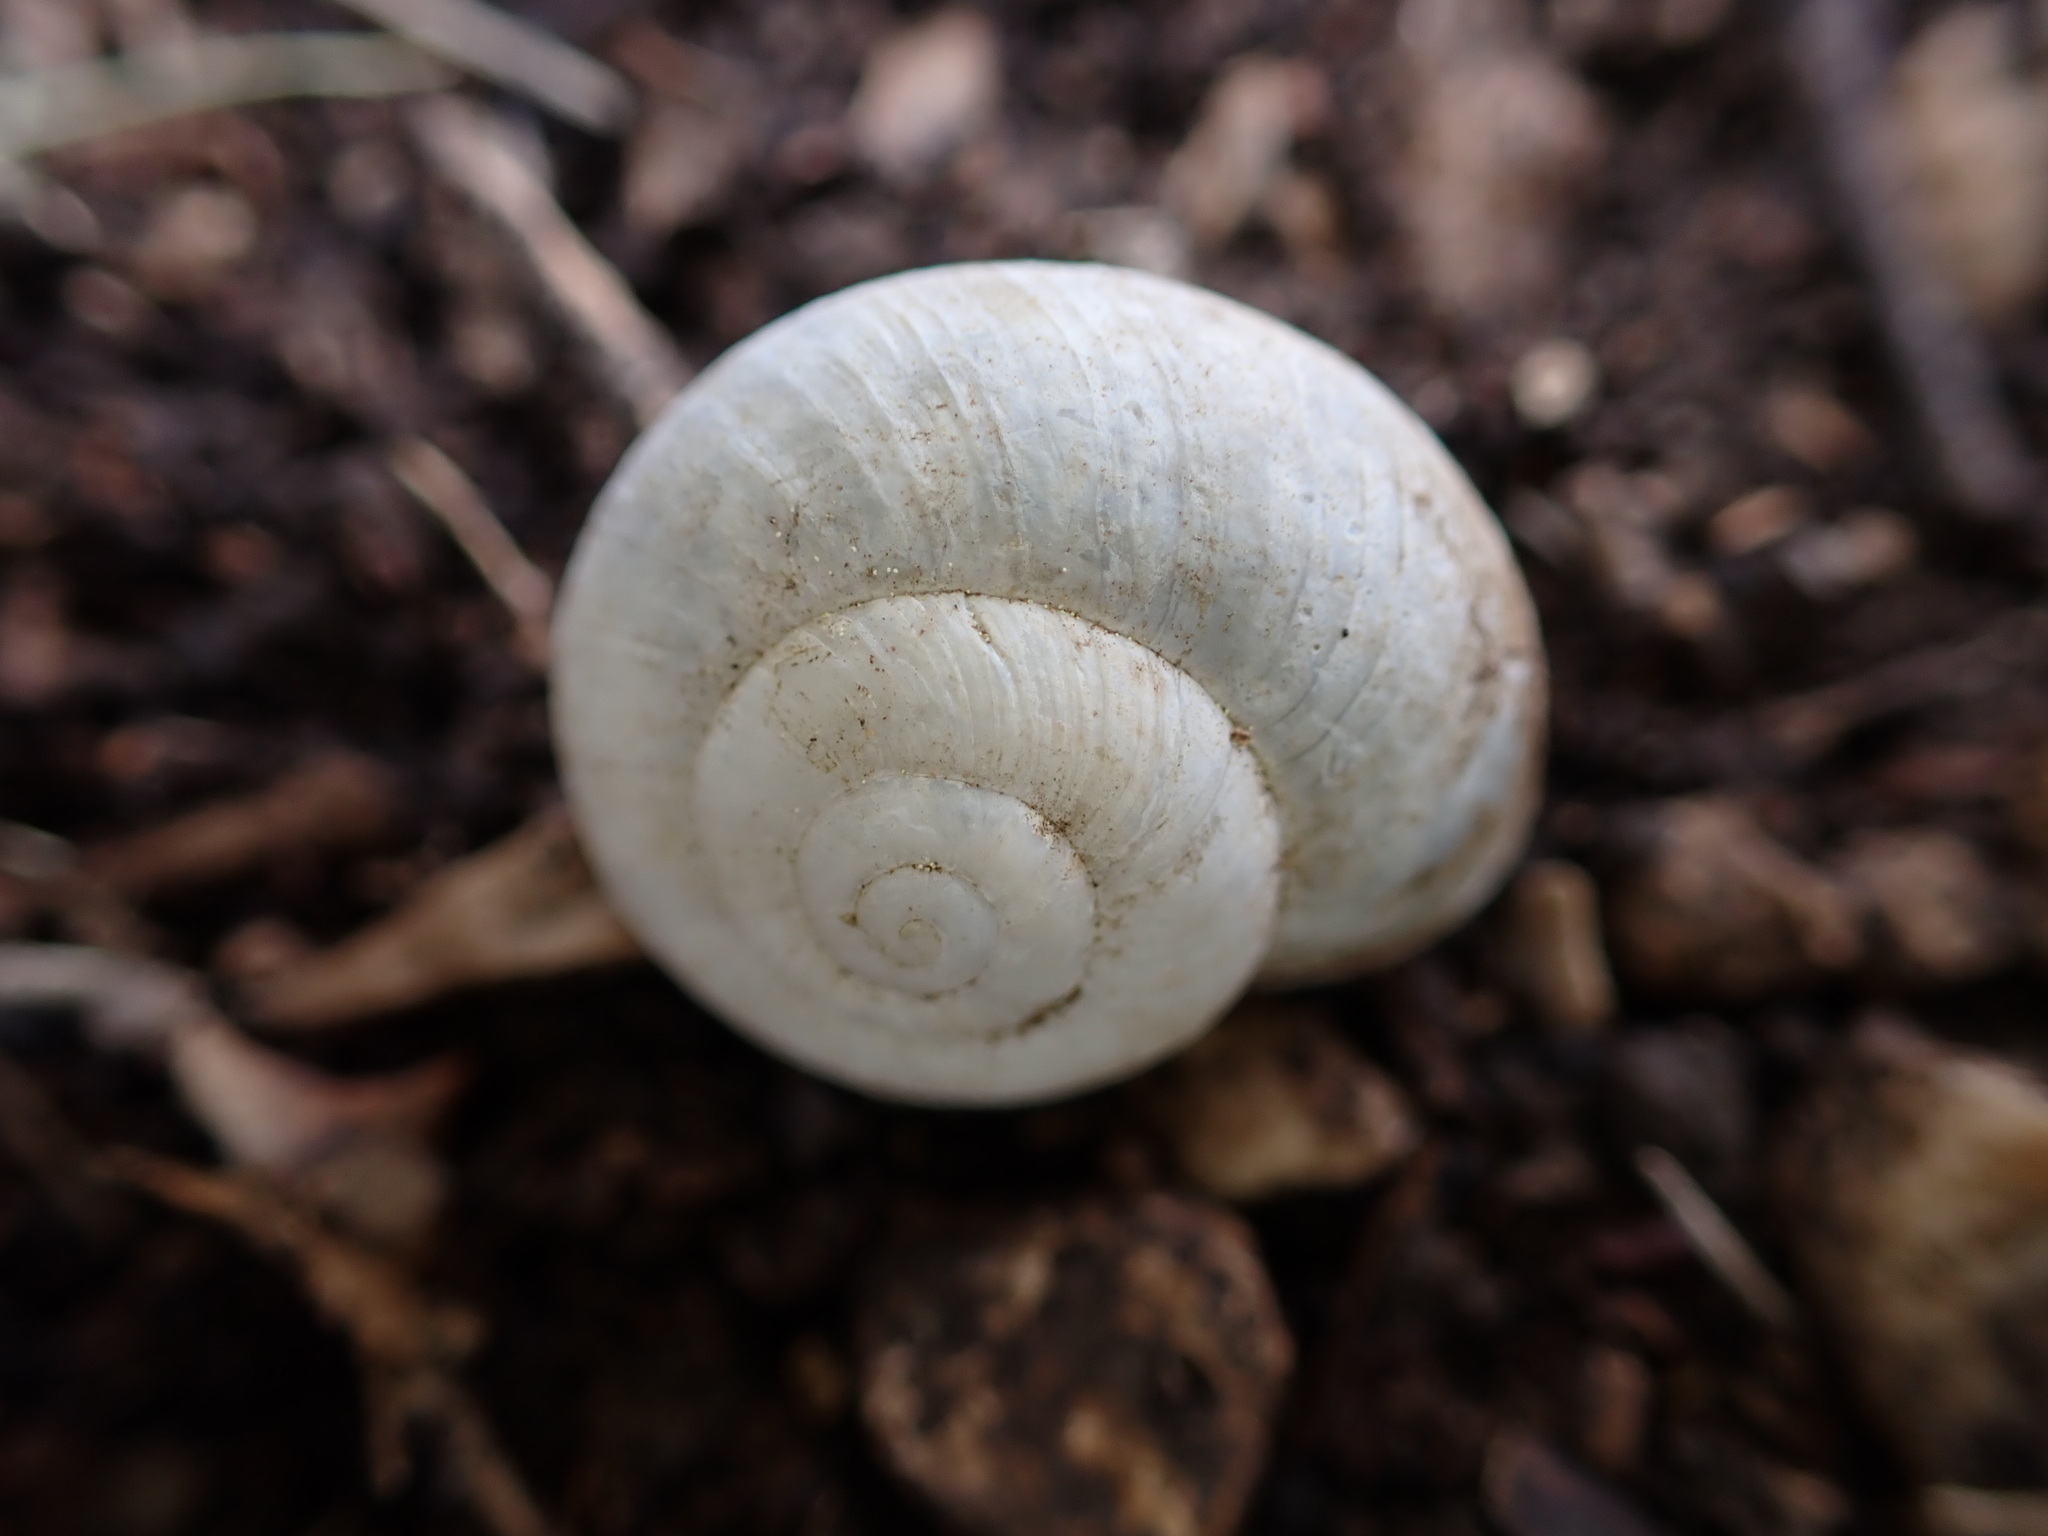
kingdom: Animalia
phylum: Mollusca
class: Gastropoda
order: Stylommatophora
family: Helicidae
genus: Pseudotachea
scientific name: Pseudotachea splendida
